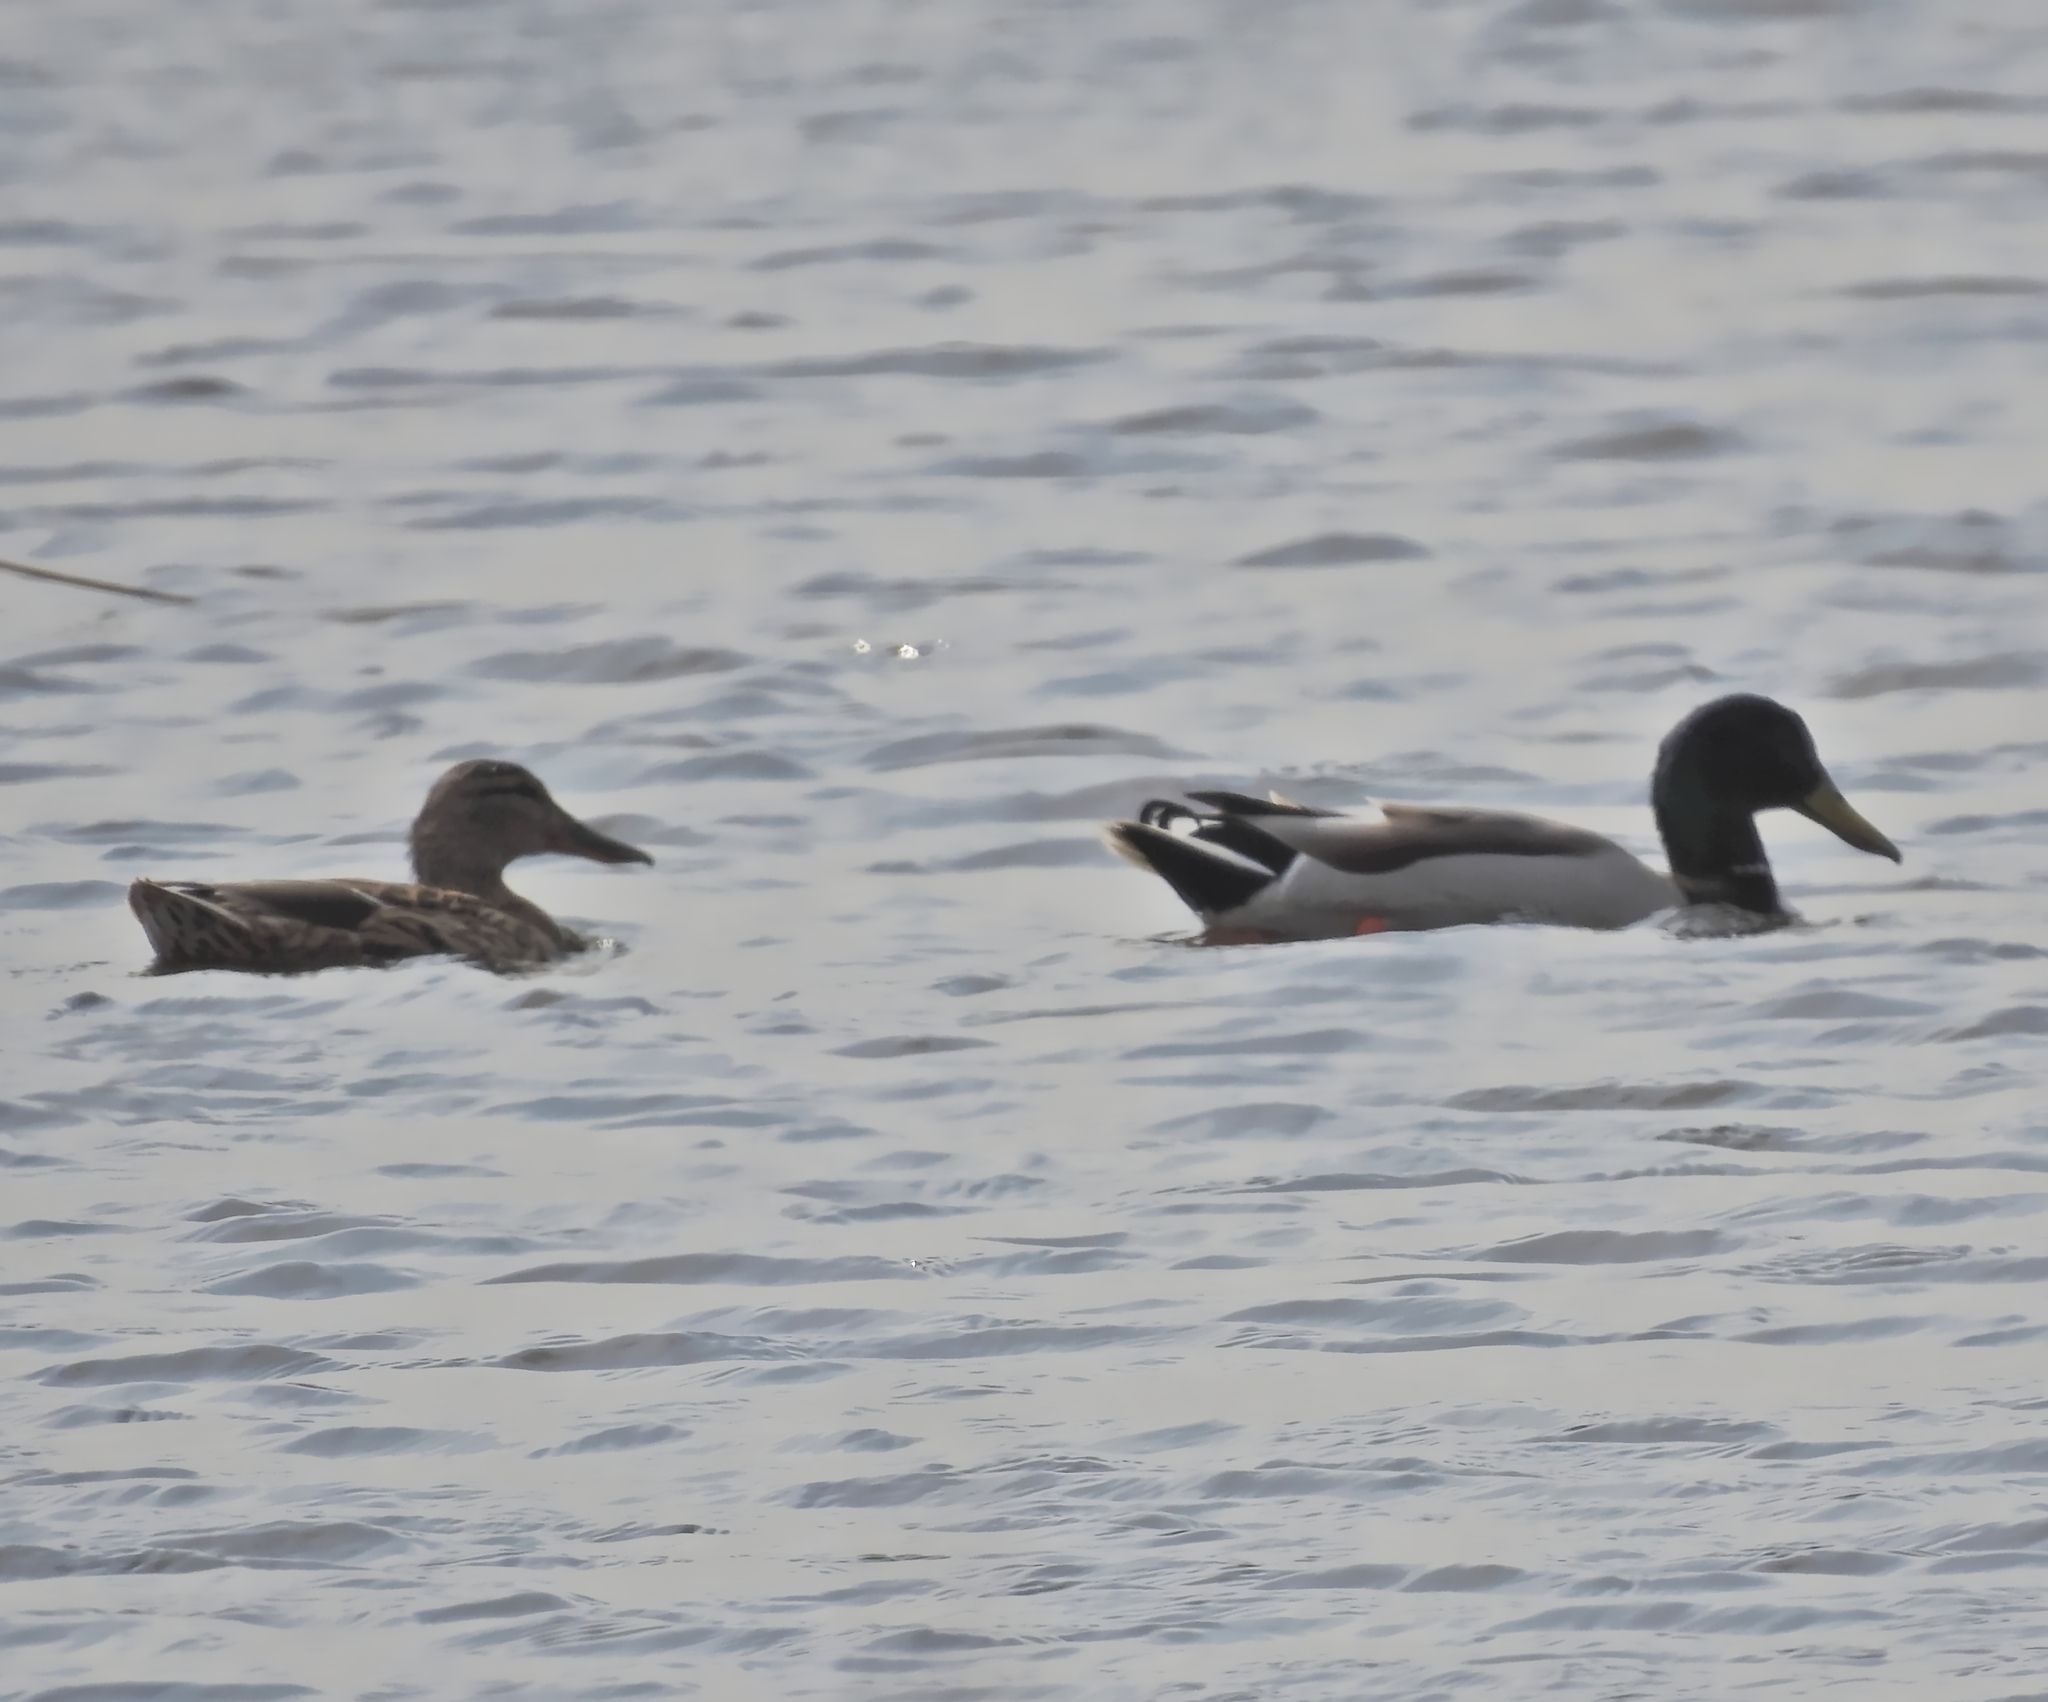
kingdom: Animalia
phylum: Chordata
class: Aves
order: Anseriformes
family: Anatidae
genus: Anas
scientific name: Anas platyrhynchos
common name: Mallard
